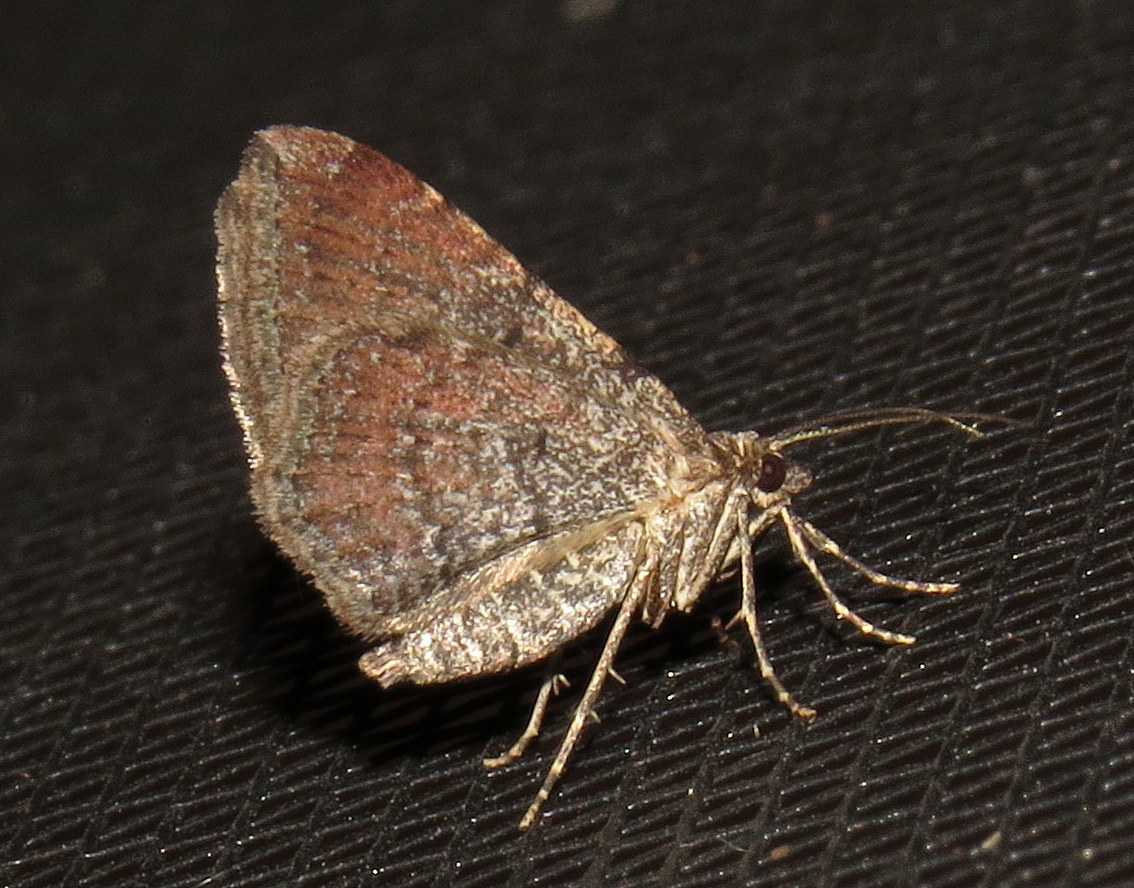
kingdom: Animalia
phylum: Arthropoda
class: Insecta
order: Lepidoptera
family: Geometridae
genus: Orthonama
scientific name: Orthonama obstipata
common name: The gem
